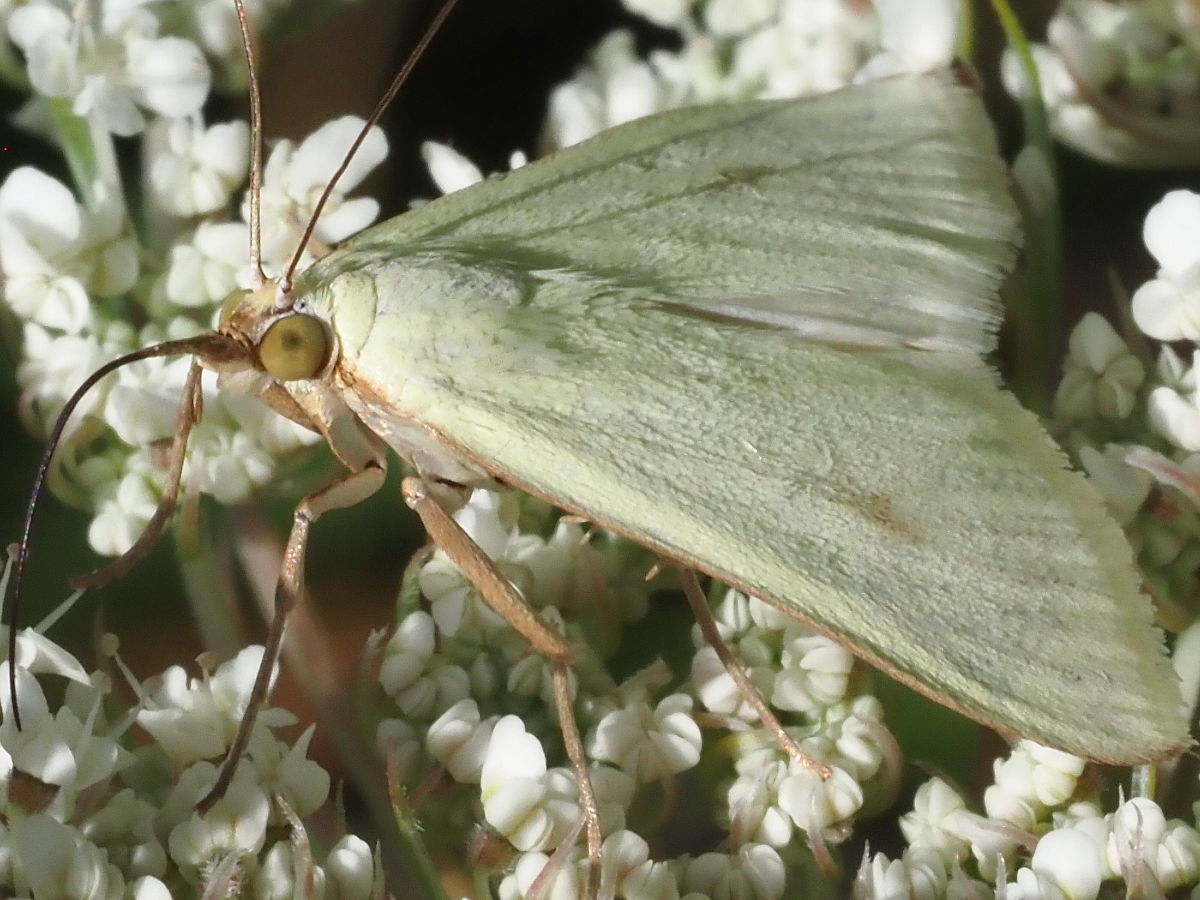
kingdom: Animalia
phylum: Arthropoda
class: Insecta
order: Lepidoptera
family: Crambidae
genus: Sitochroa
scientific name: Sitochroa palealis
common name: Greenish-yellow sitochroa moth
